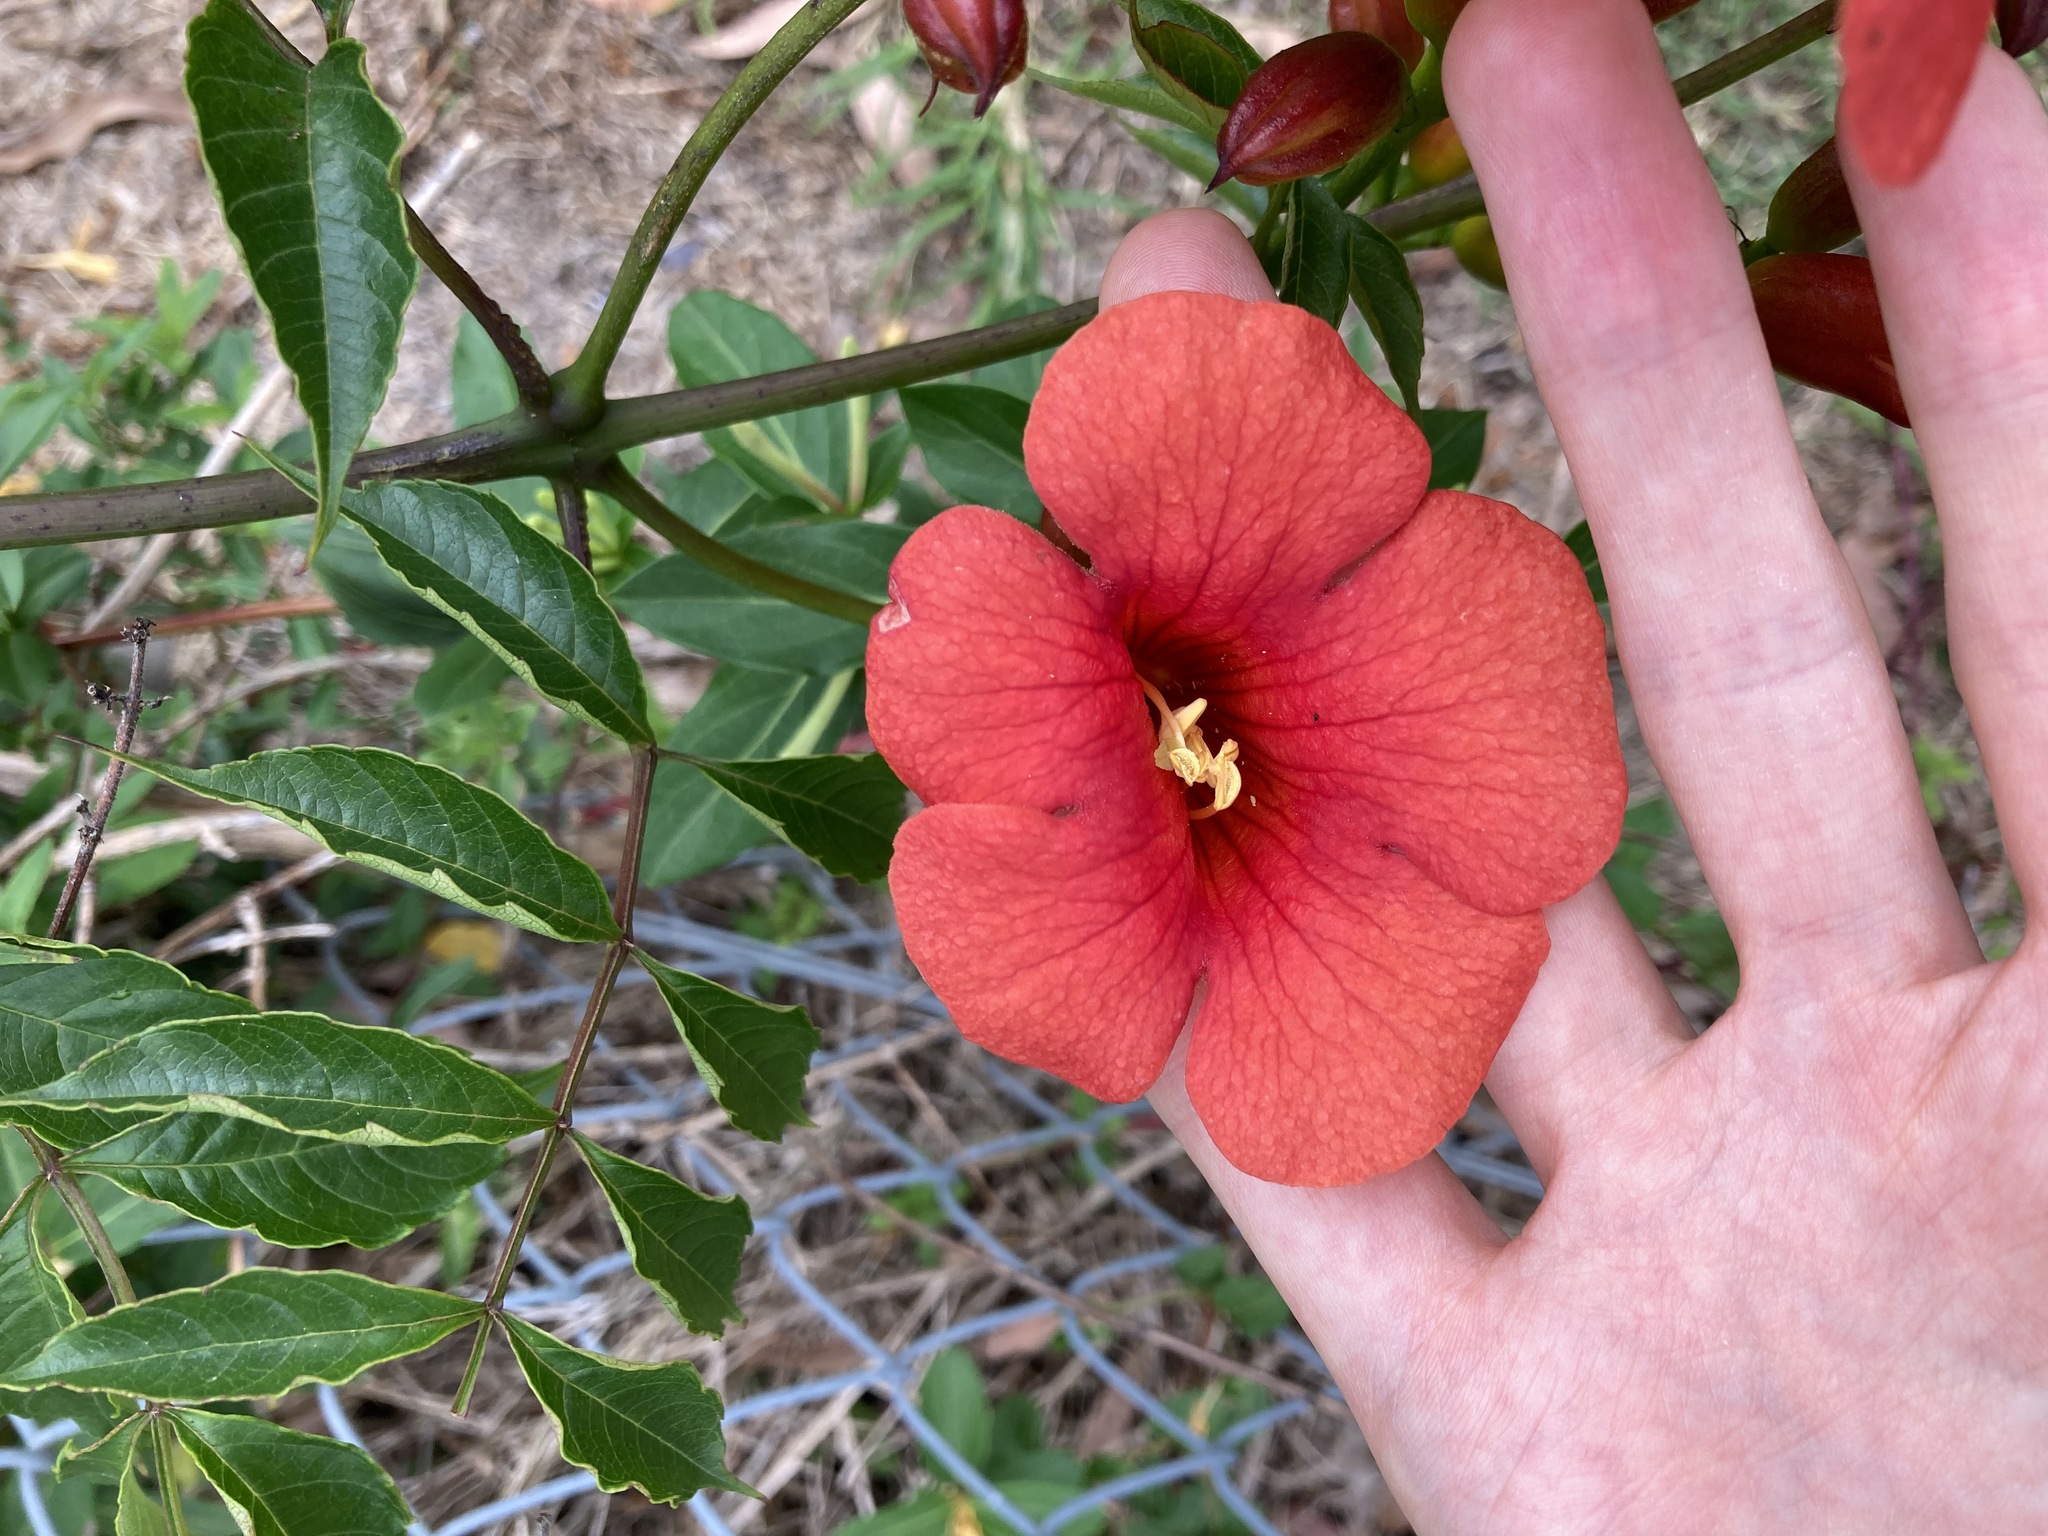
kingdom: Plantae
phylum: Tracheophyta
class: Magnoliopsida
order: Lamiales
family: Bignoniaceae
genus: Campsis
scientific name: Campsis tagliabueana
